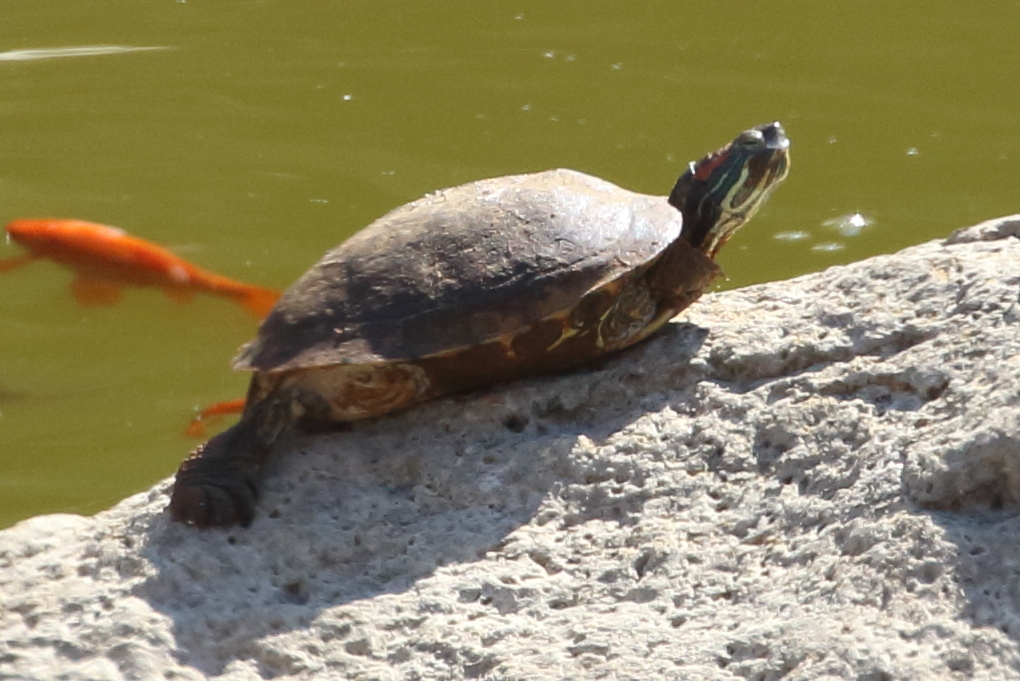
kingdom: Animalia
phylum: Chordata
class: Testudines
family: Emydidae
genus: Trachemys
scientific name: Trachemys scripta
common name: Slider
